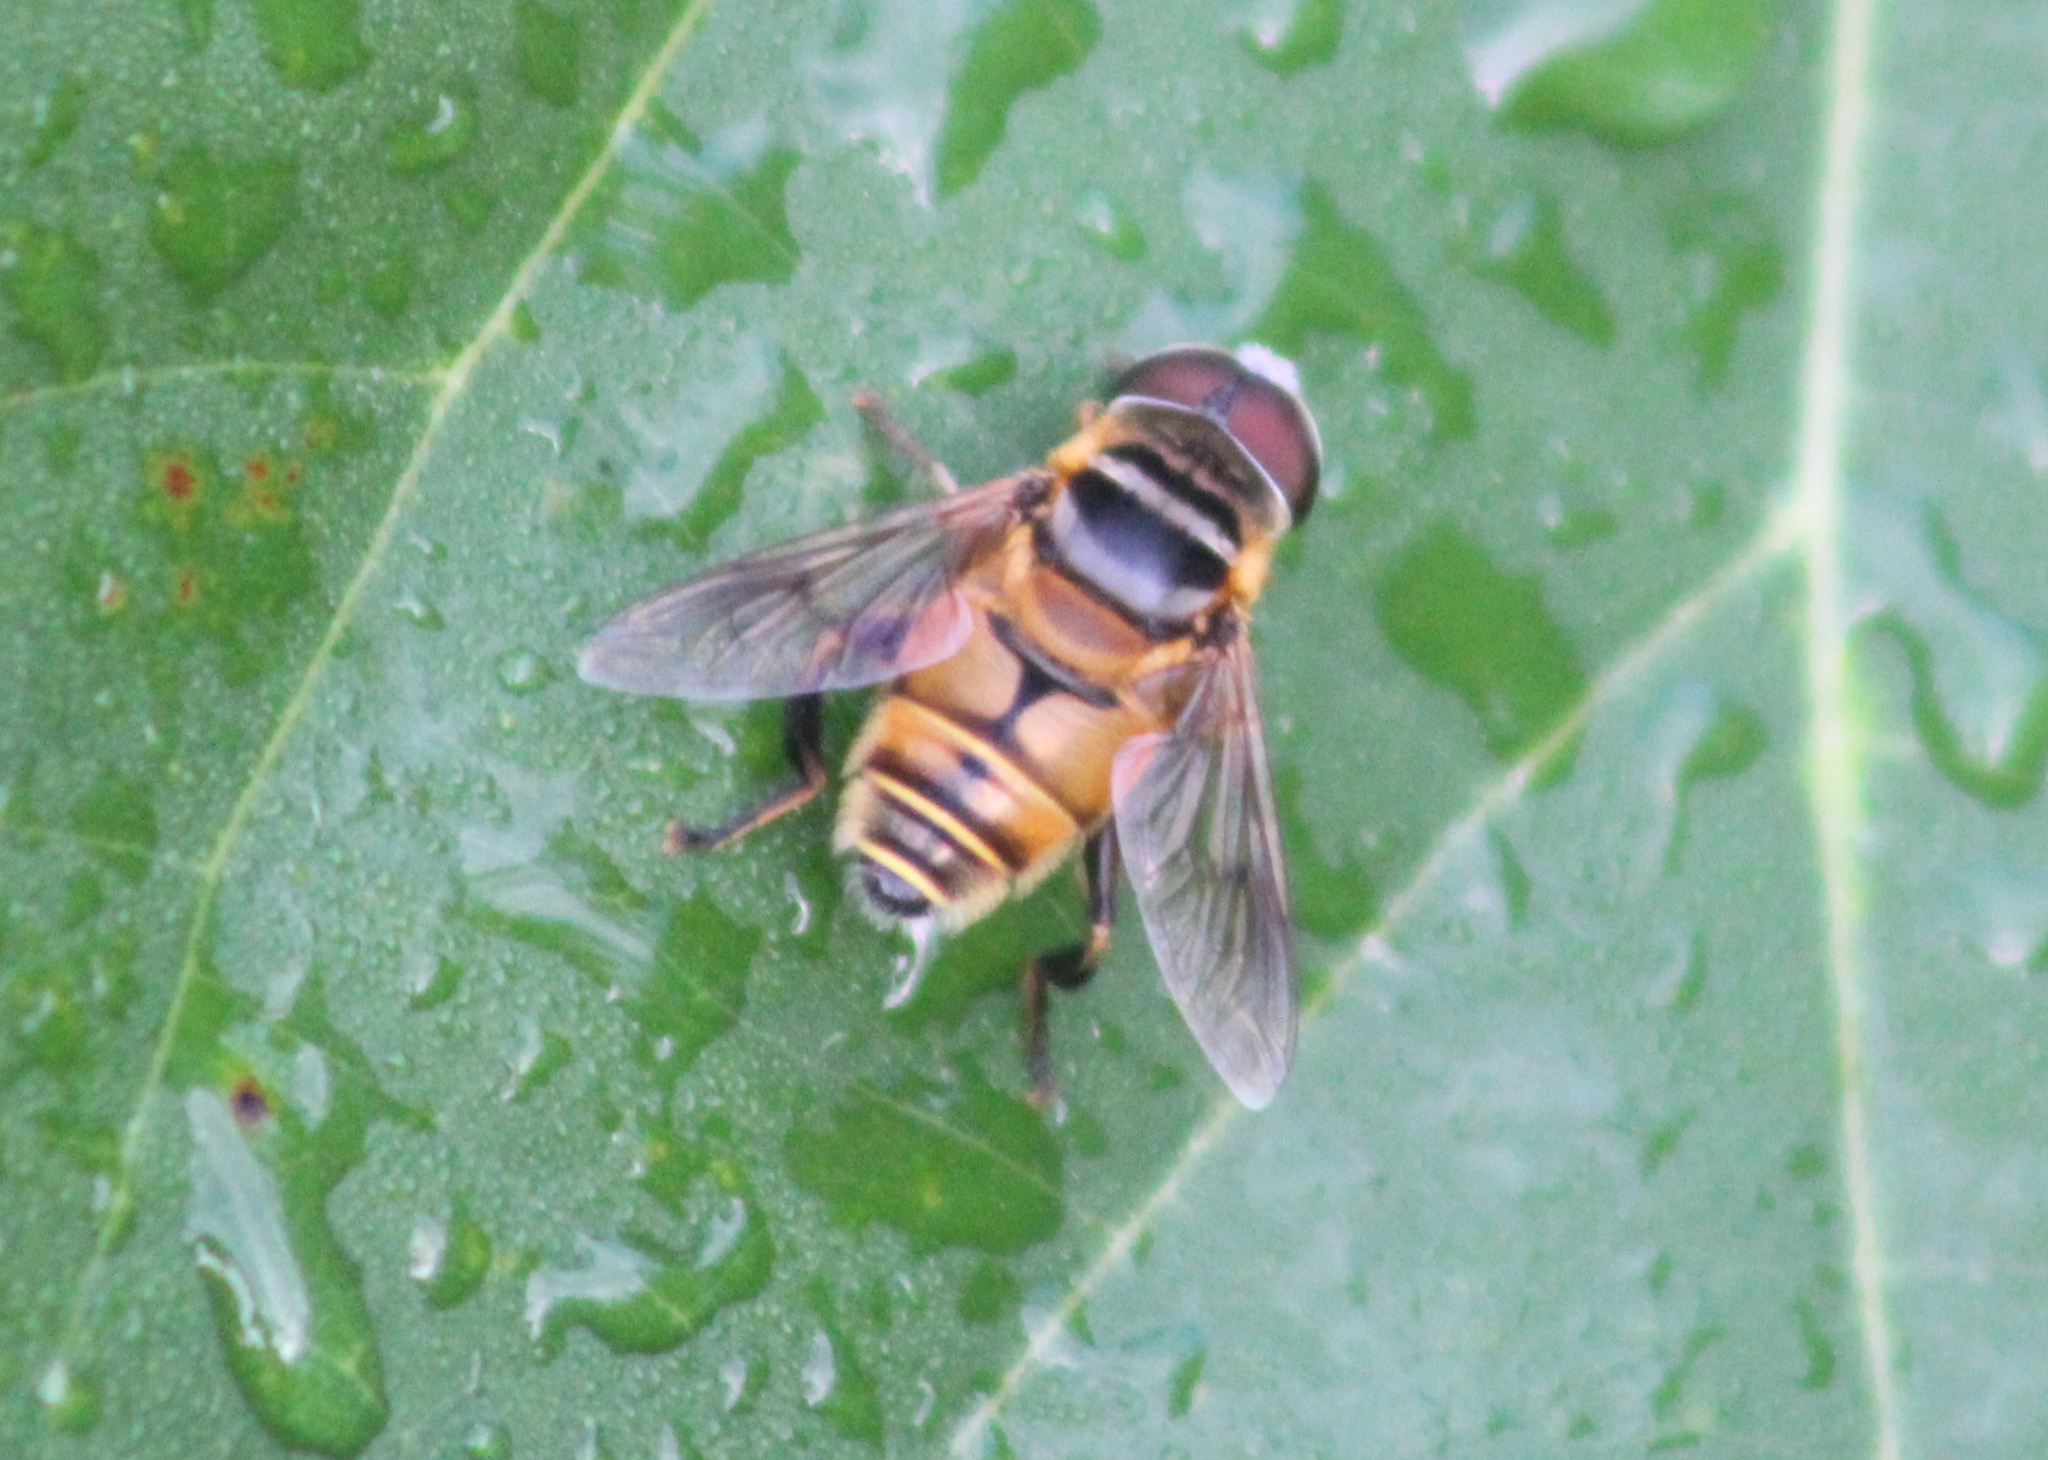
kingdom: Animalia
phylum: Arthropoda
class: Insecta
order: Diptera
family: Syrphidae
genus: Palpada
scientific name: Palpada vinetorum
